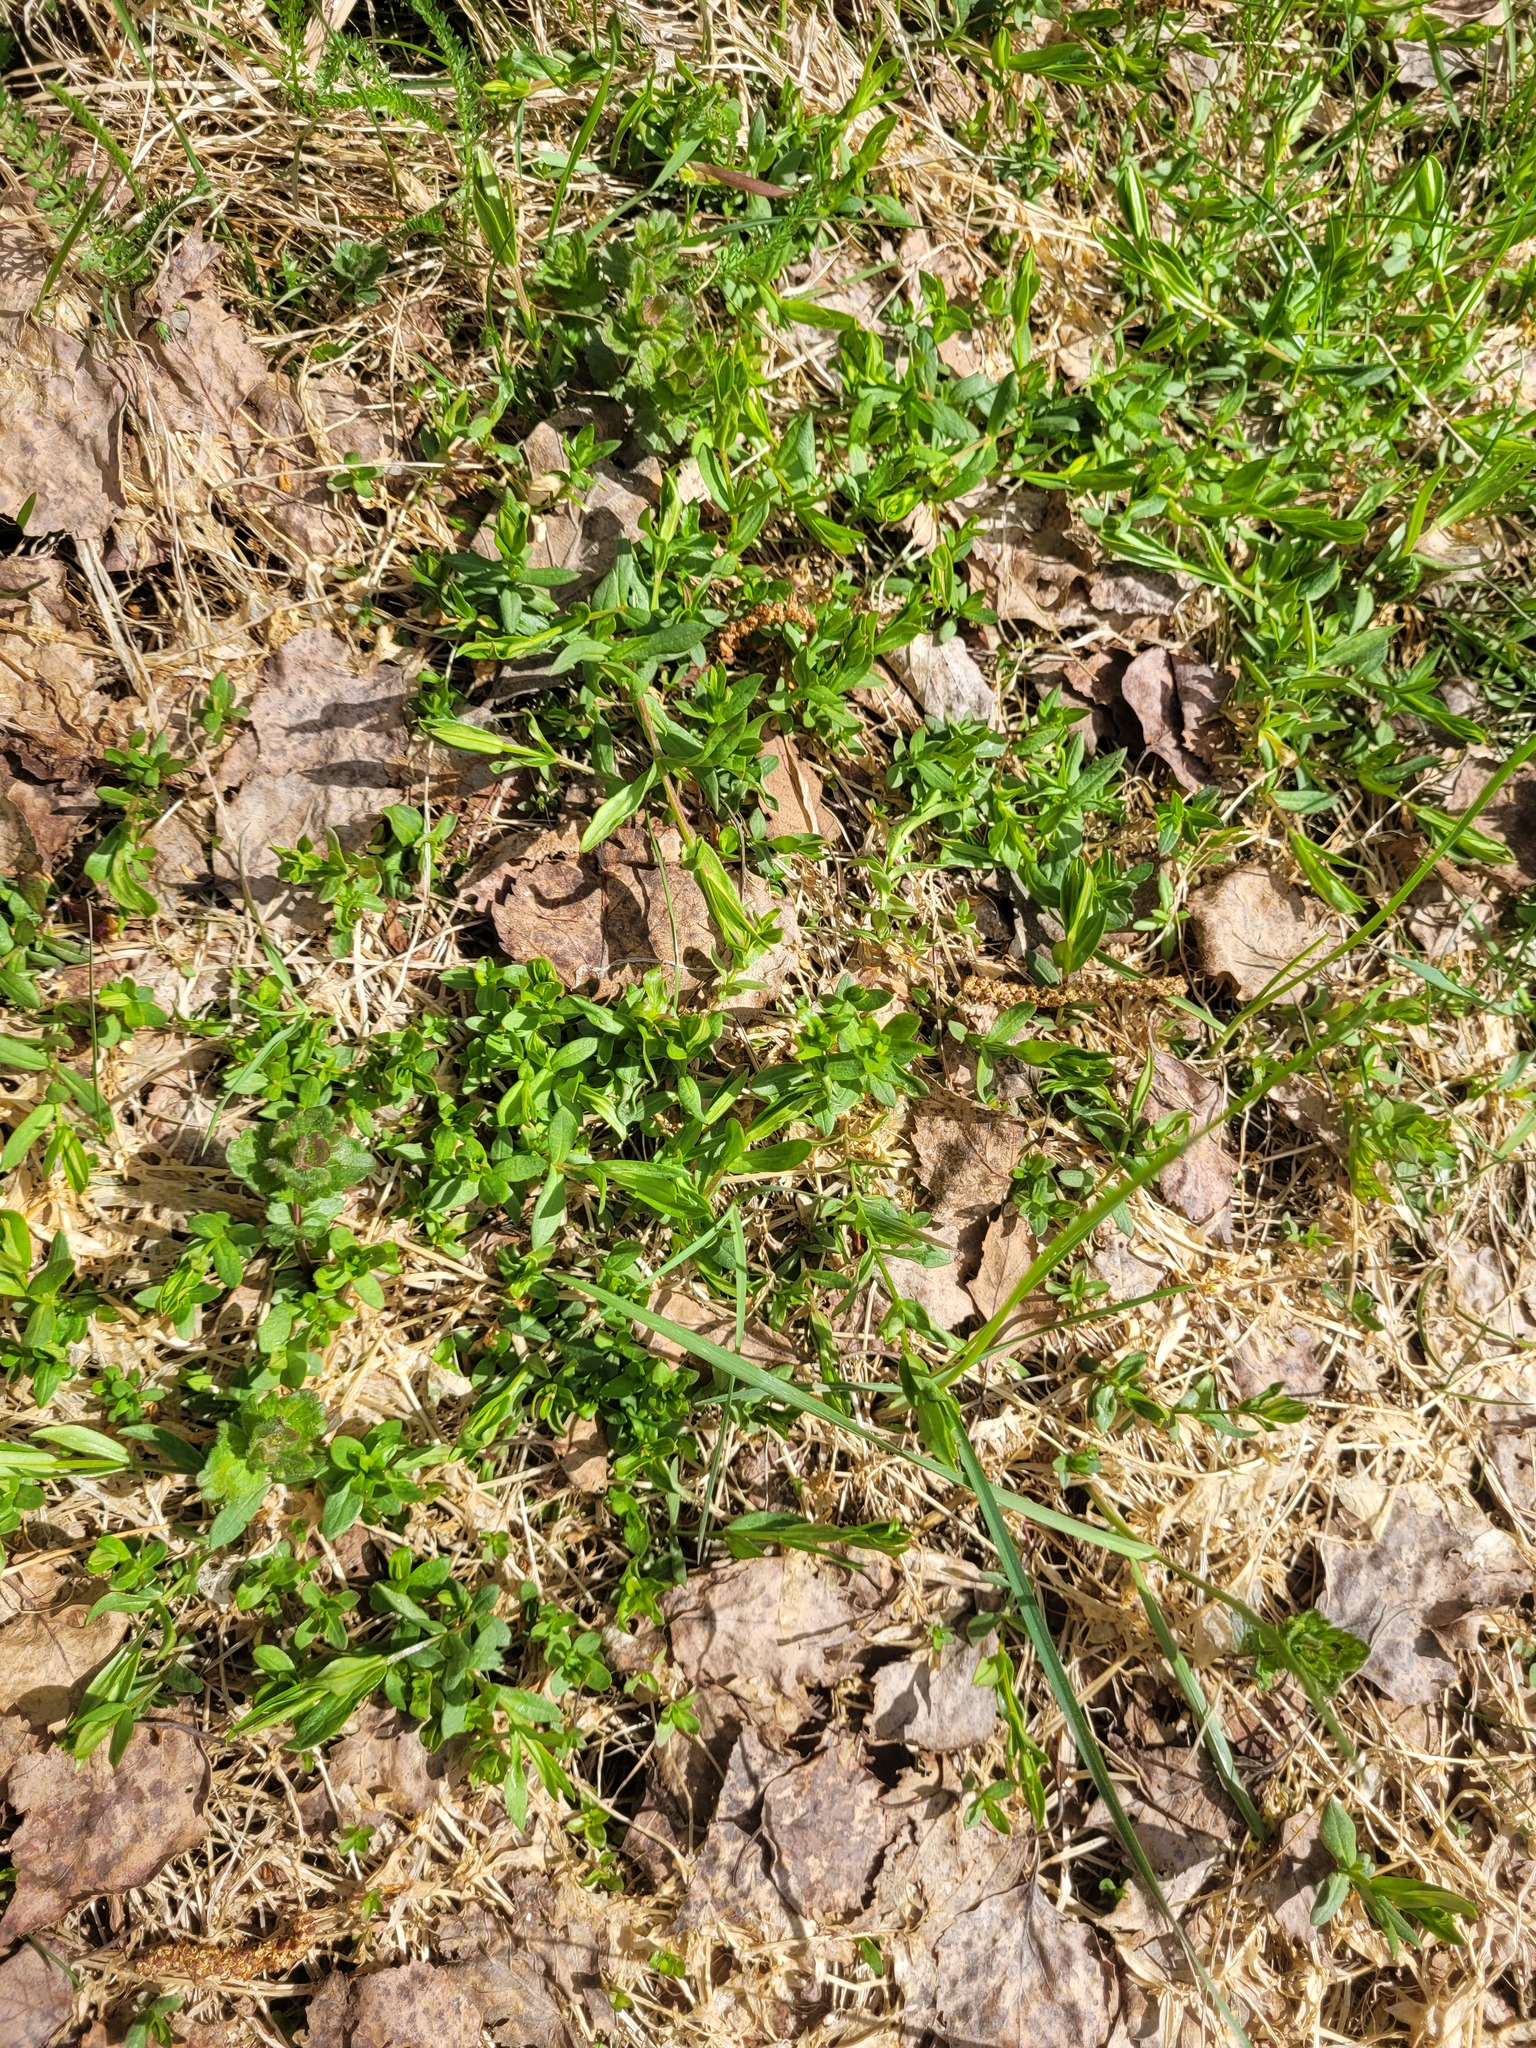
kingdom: Plantae
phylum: Tracheophyta
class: Magnoliopsida
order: Caryophyllales
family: Caryophyllaceae
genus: Stellaria
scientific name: Stellaria graminea
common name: Grass-like starwort
